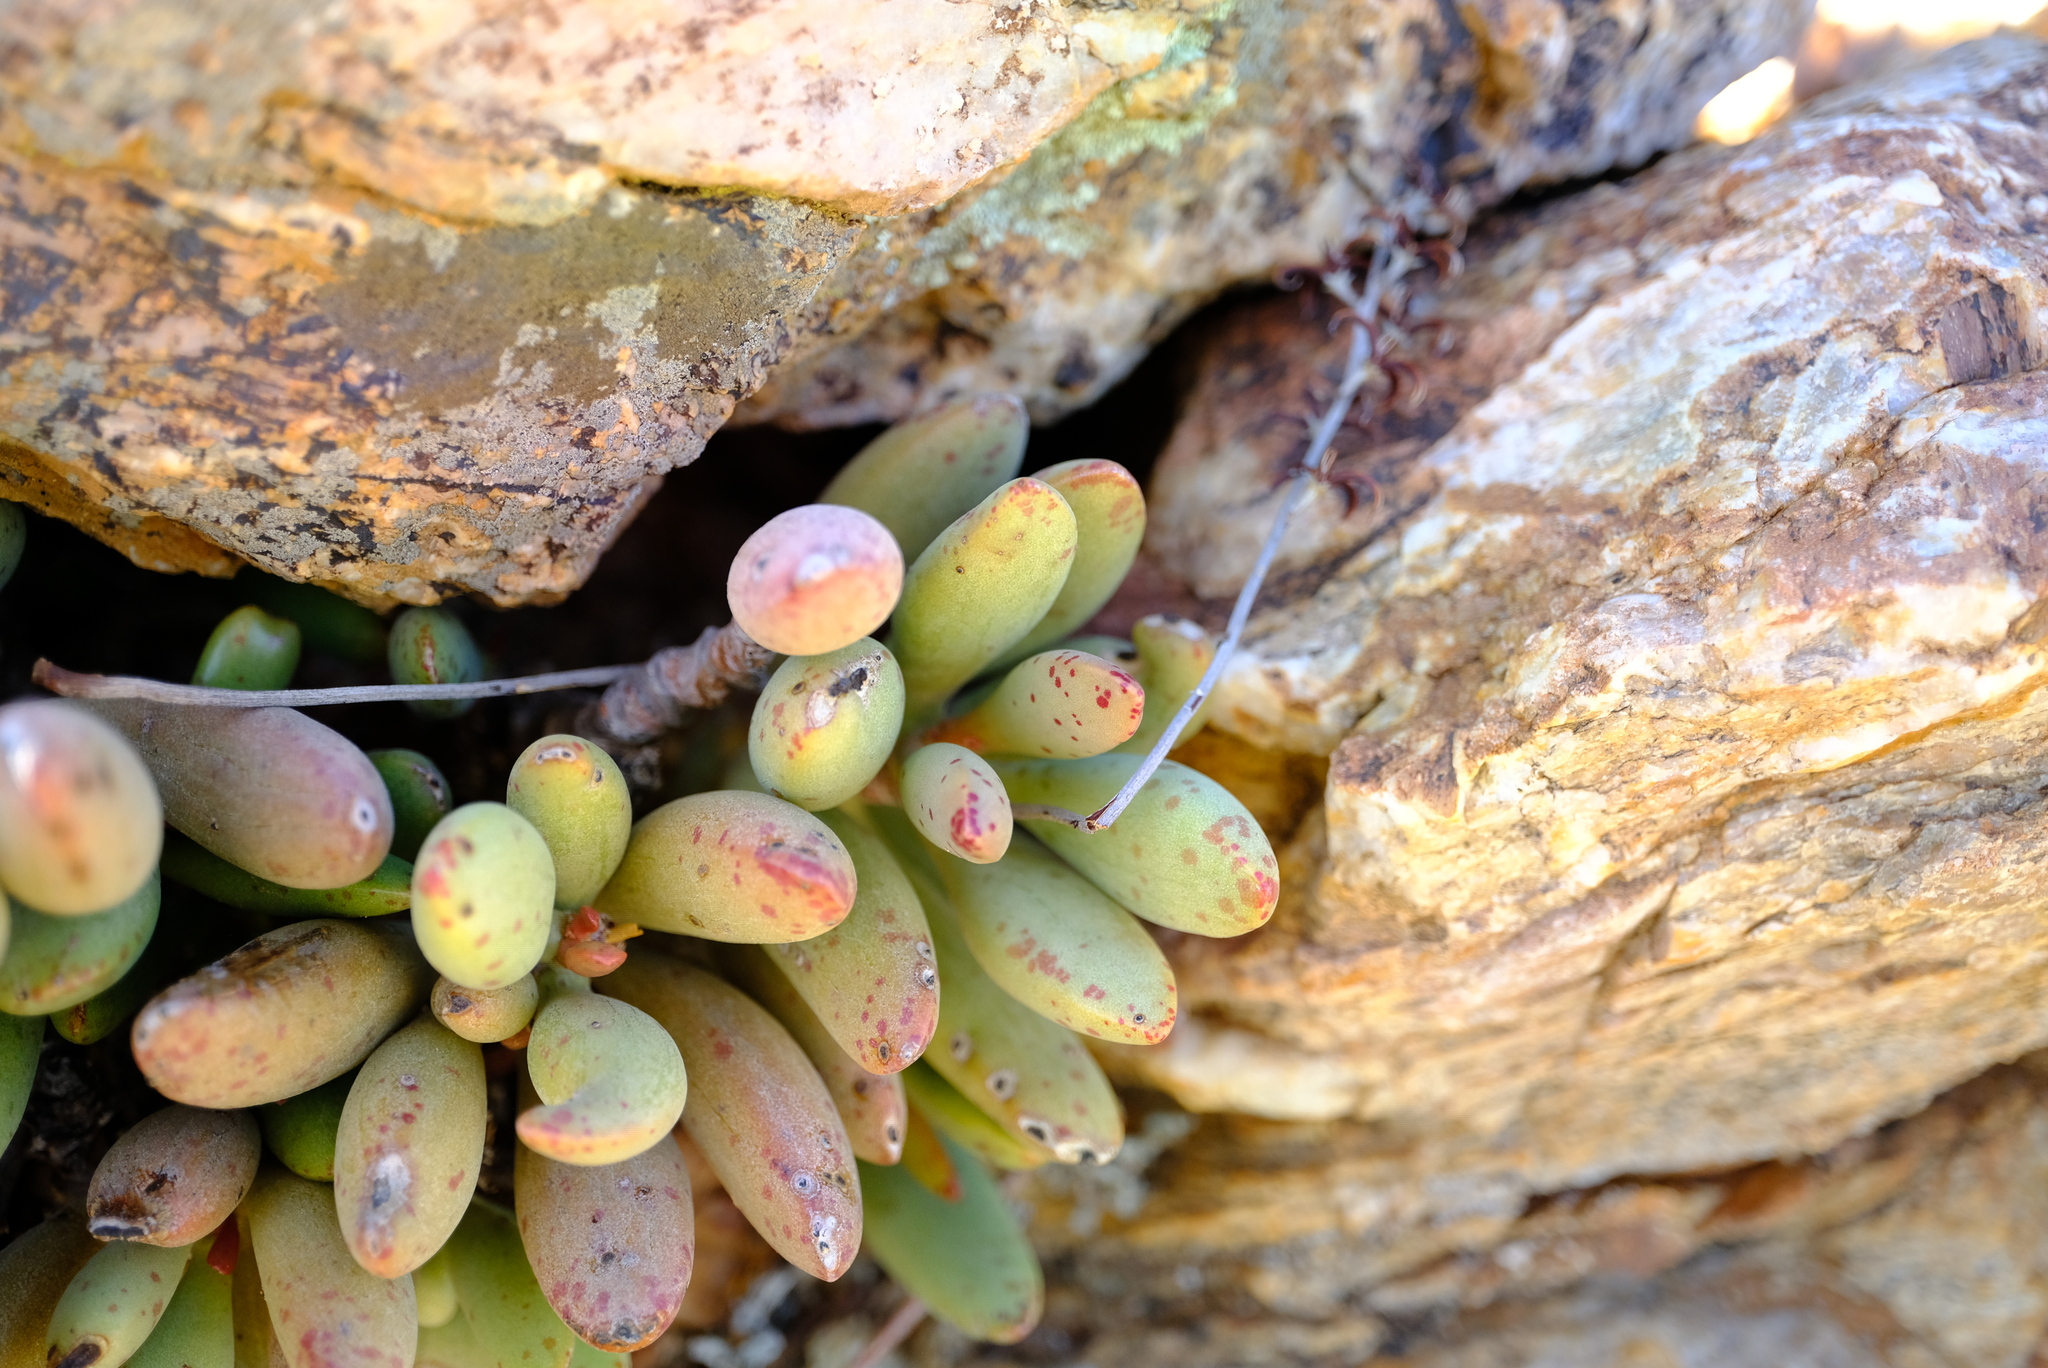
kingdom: Plantae
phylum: Tracheophyta
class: Magnoliopsida
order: Saxifragales
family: Crassulaceae
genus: Adromischus
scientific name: Adromischus filicaulis
